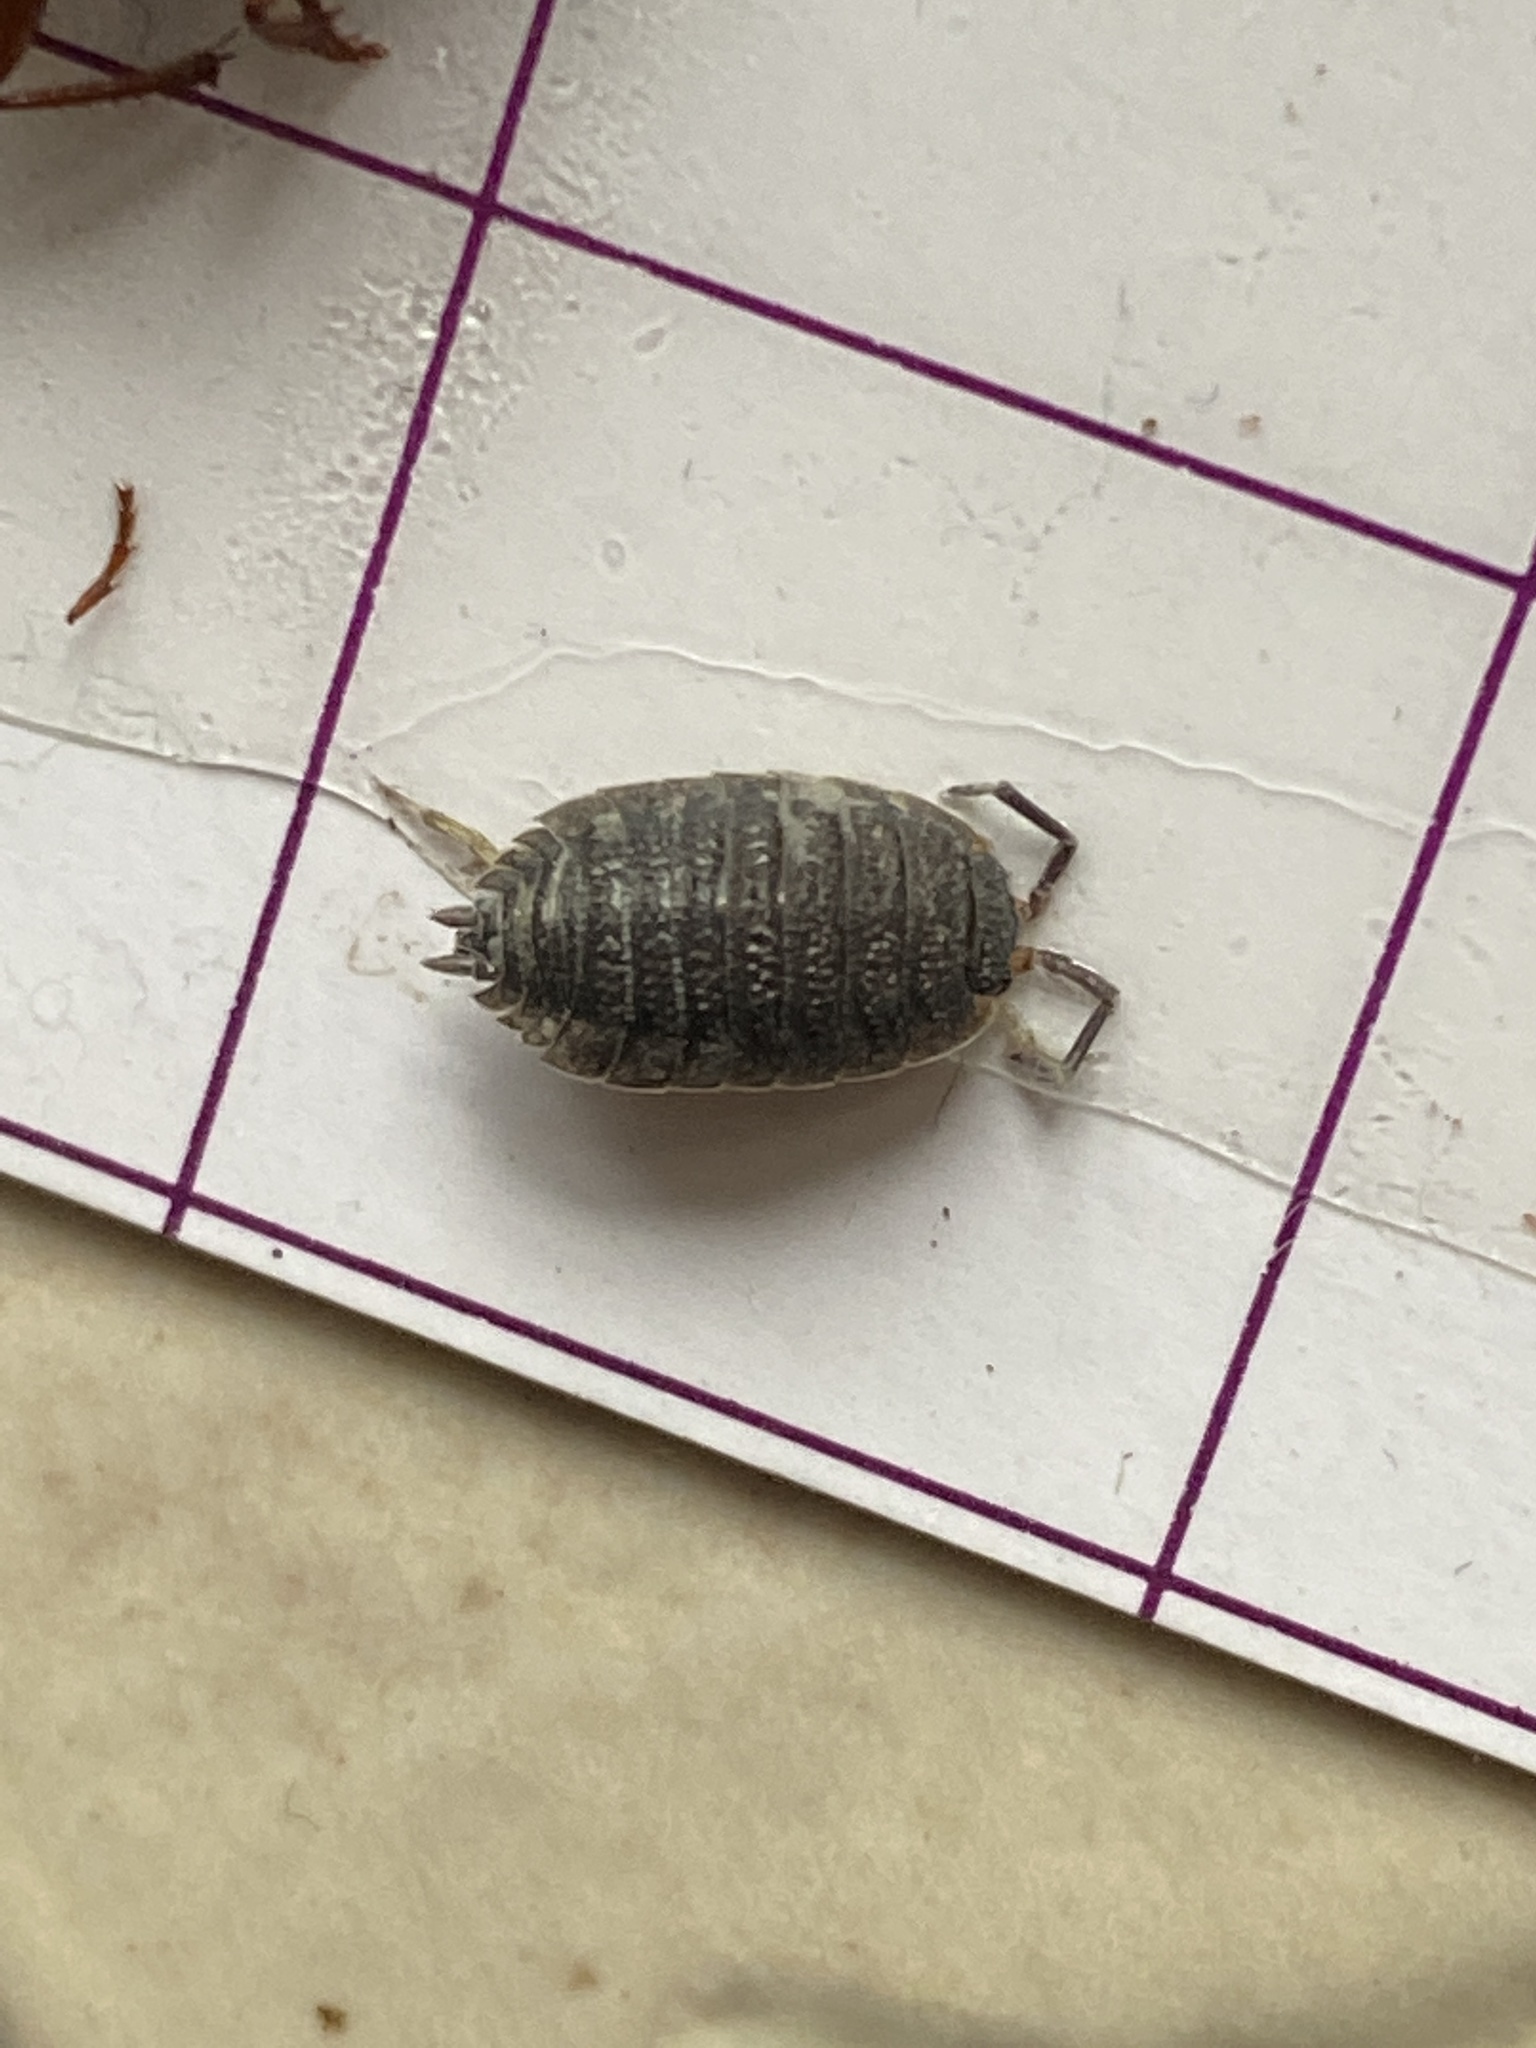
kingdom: Animalia
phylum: Arthropoda
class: Malacostraca
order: Isopoda
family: Porcellionidae
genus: Porcellio
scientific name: Porcellio scaber
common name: Common rough woodlouse
